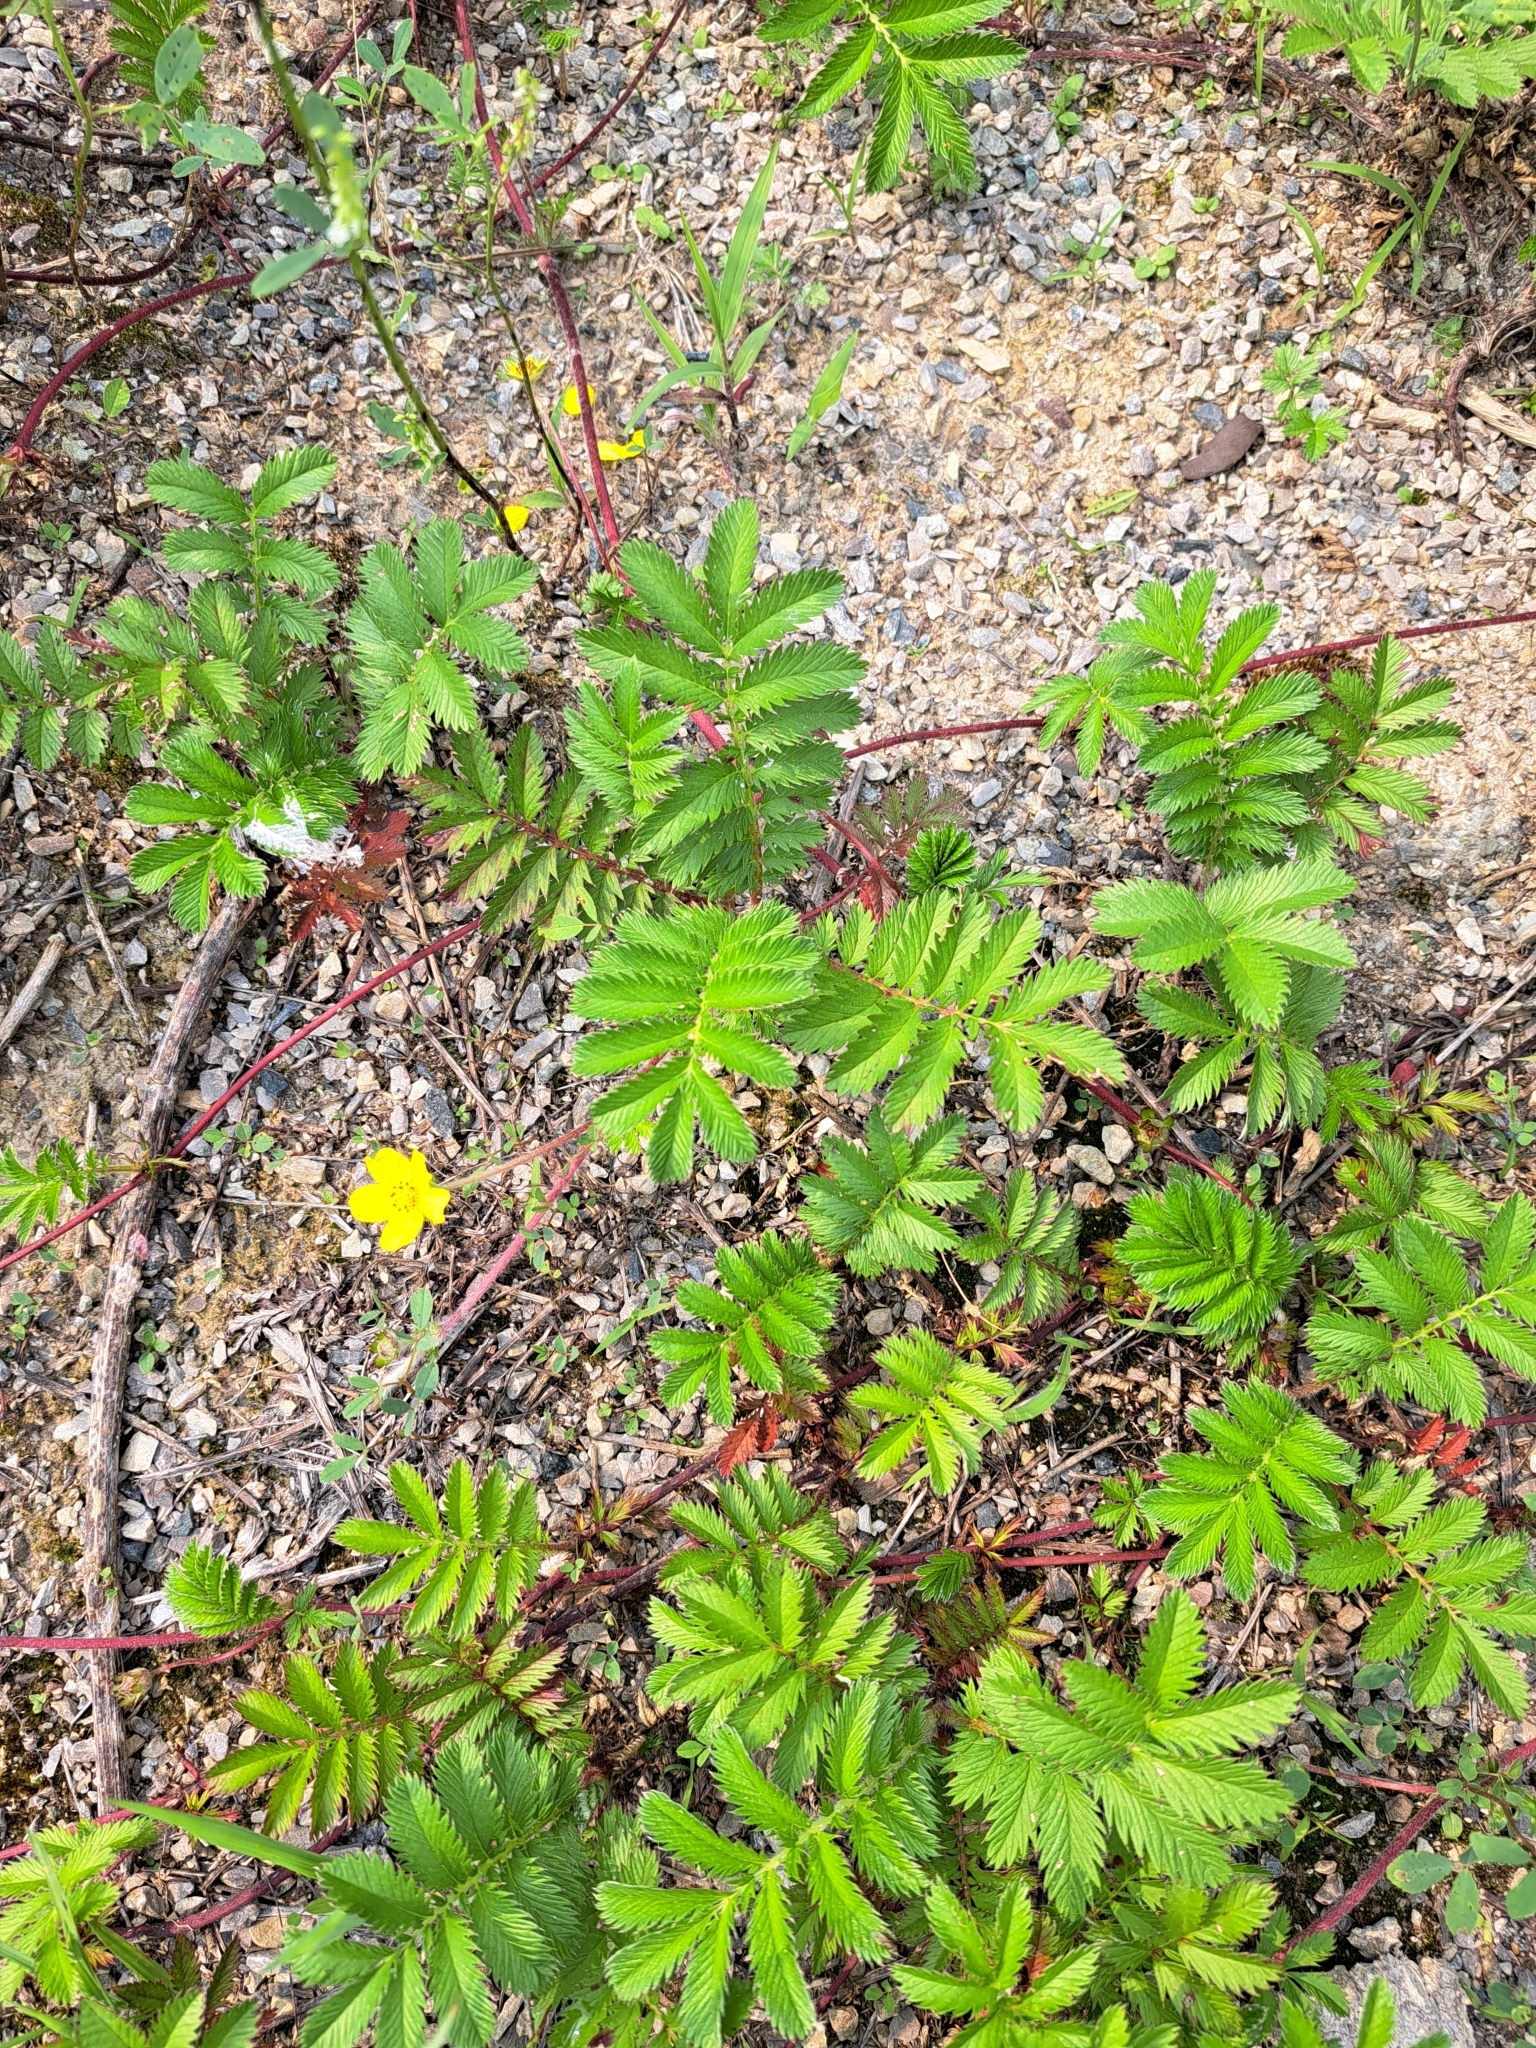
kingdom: Plantae
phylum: Tracheophyta
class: Magnoliopsida
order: Rosales
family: Rosaceae
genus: Argentina
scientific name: Argentina anserina
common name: Common silverweed
